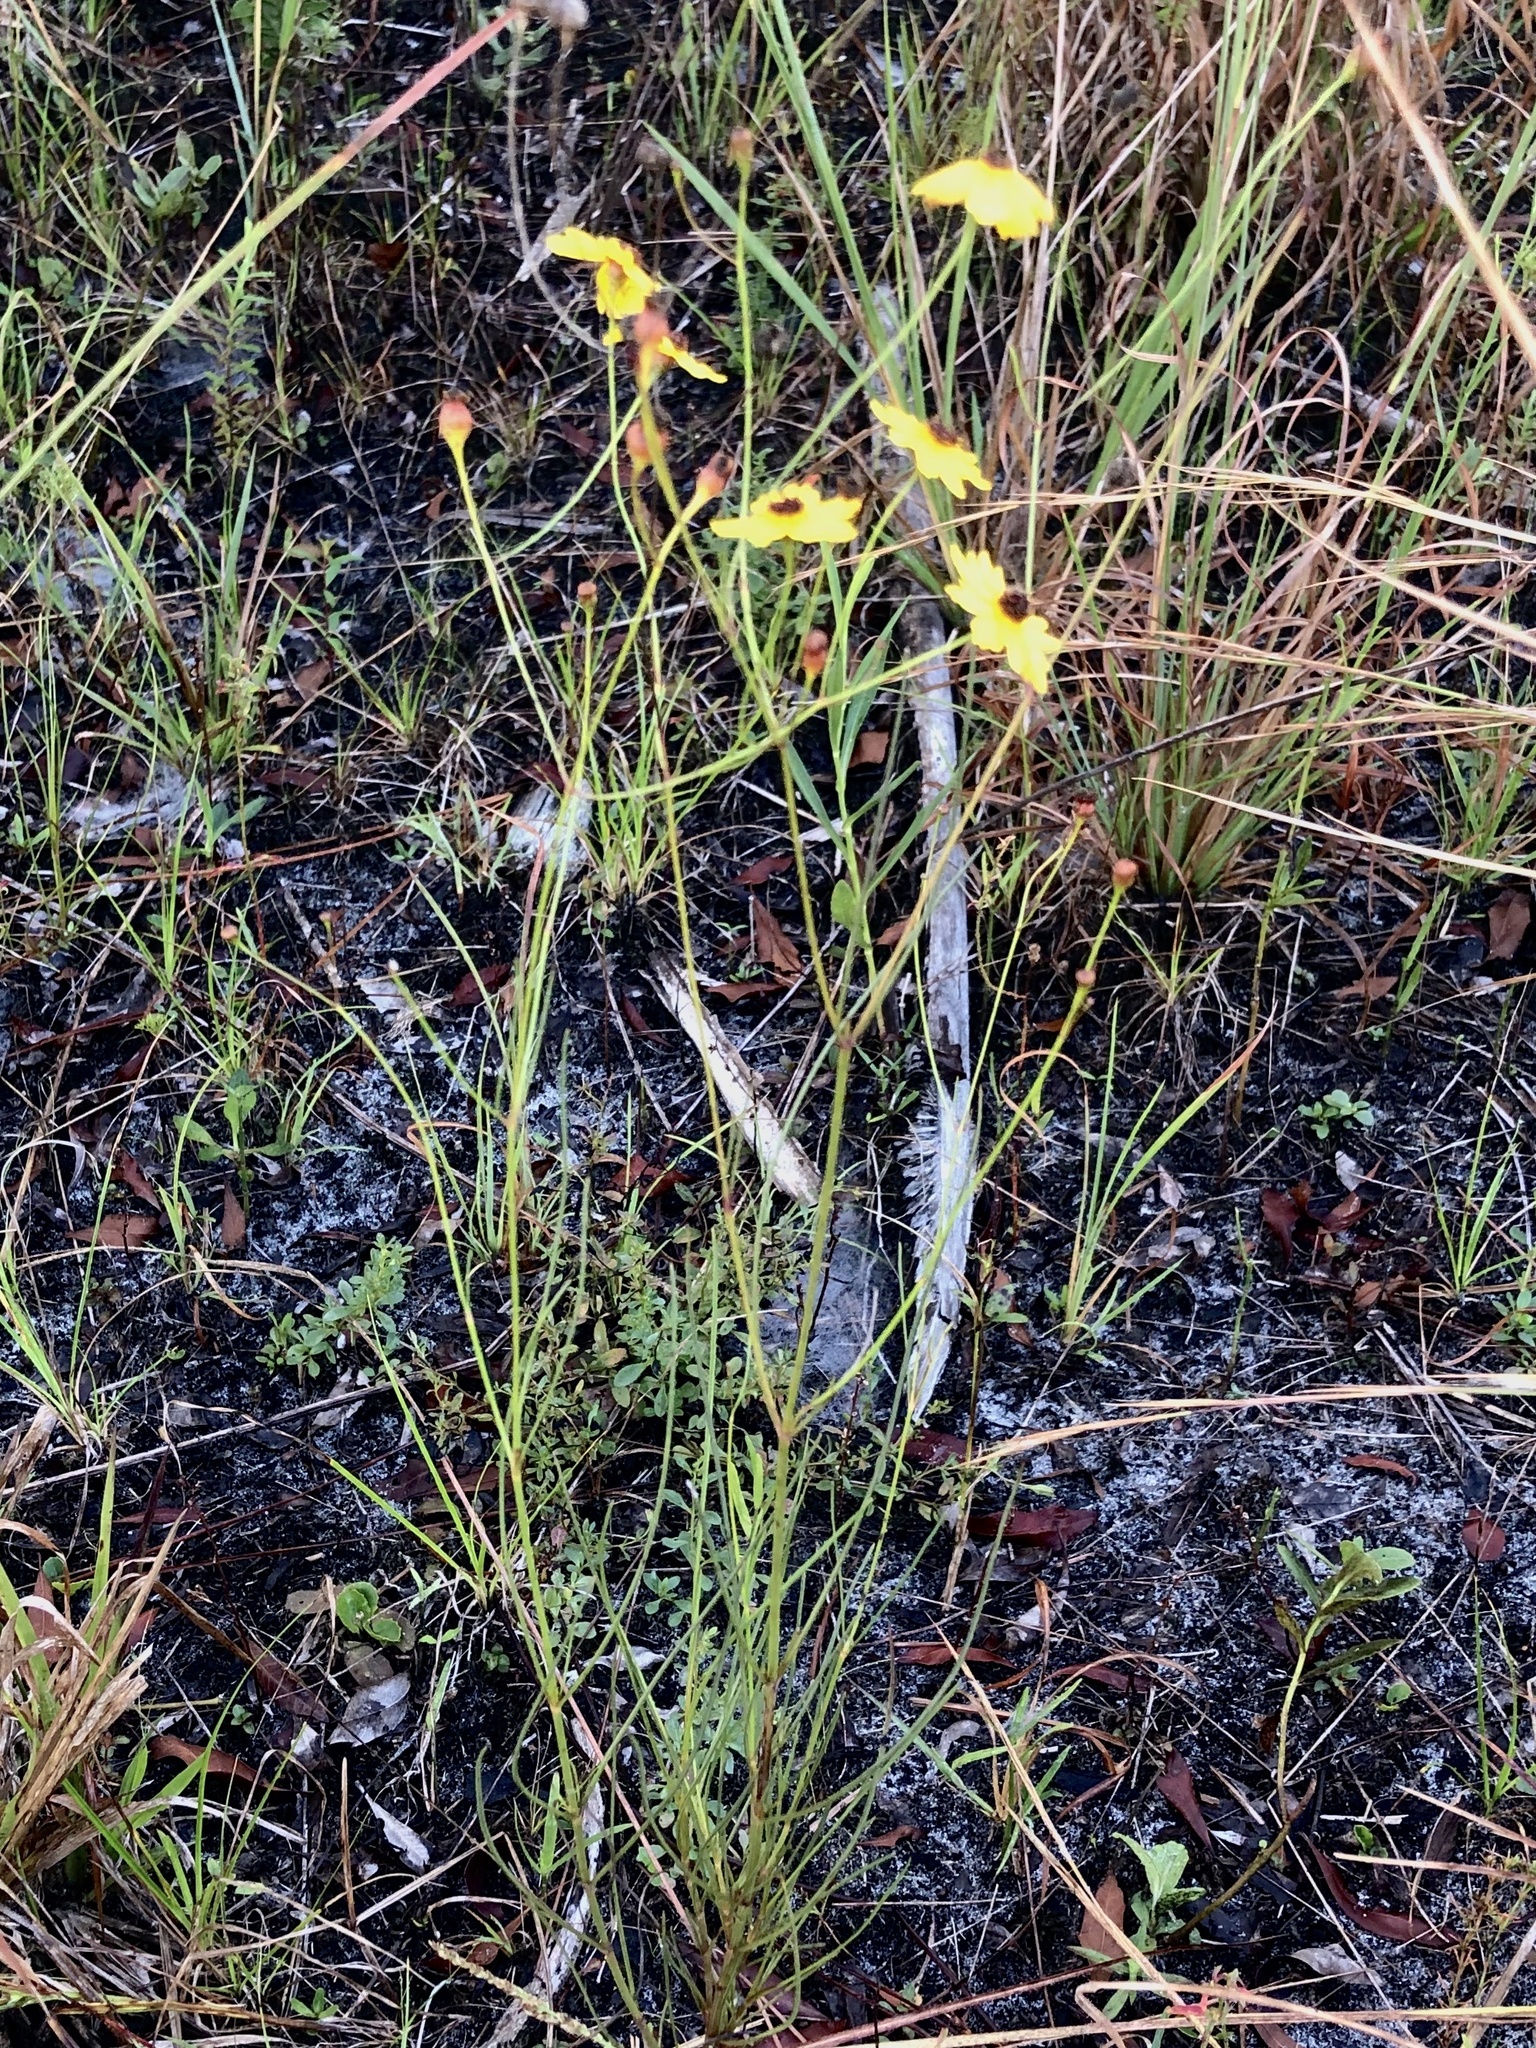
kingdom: Plantae
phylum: Tracheophyta
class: Magnoliopsida
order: Asterales
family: Asteraceae
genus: Coreopsis
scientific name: Coreopsis leavenworthii
